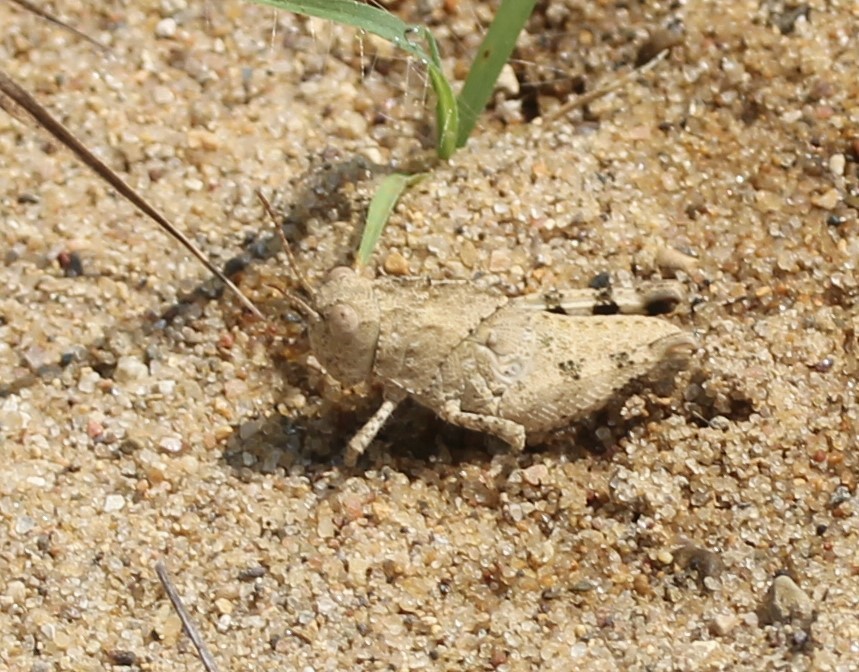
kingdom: Animalia
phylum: Arthropoda
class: Insecta
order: Orthoptera
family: Acrididae
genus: Dissosteira
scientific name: Dissosteira carolina
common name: Carolina grasshopper
